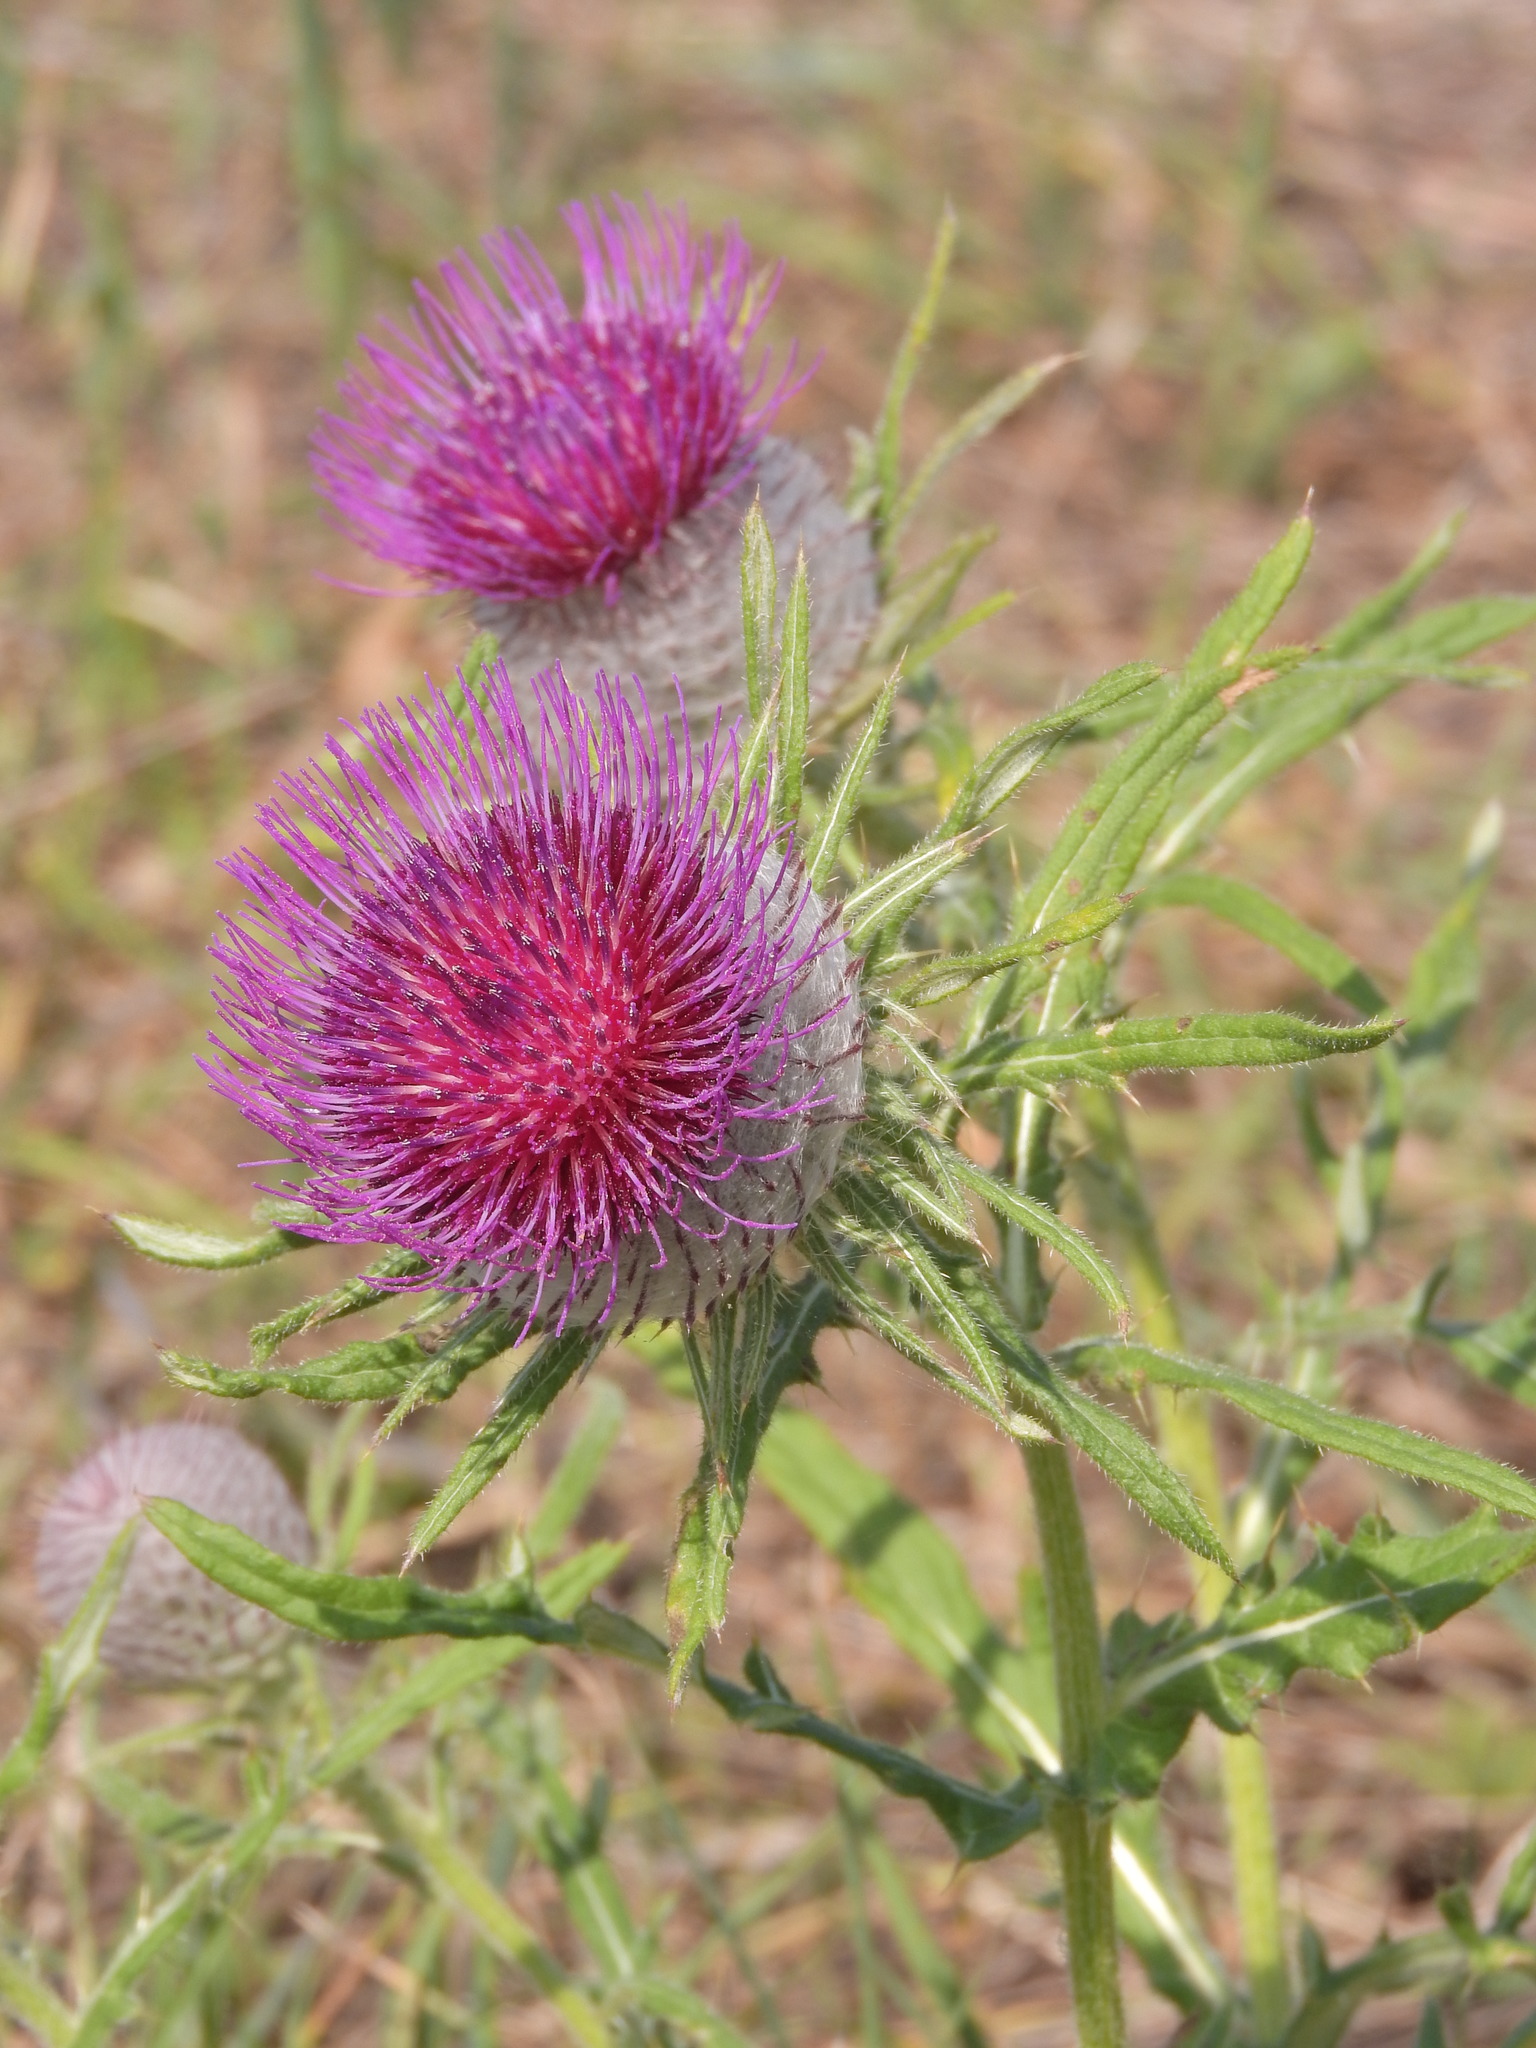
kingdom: Plantae
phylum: Tracheophyta
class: Magnoliopsida
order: Asterales
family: Asteraceae
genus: Lophiolepis
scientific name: Lophiolepis eriophora
